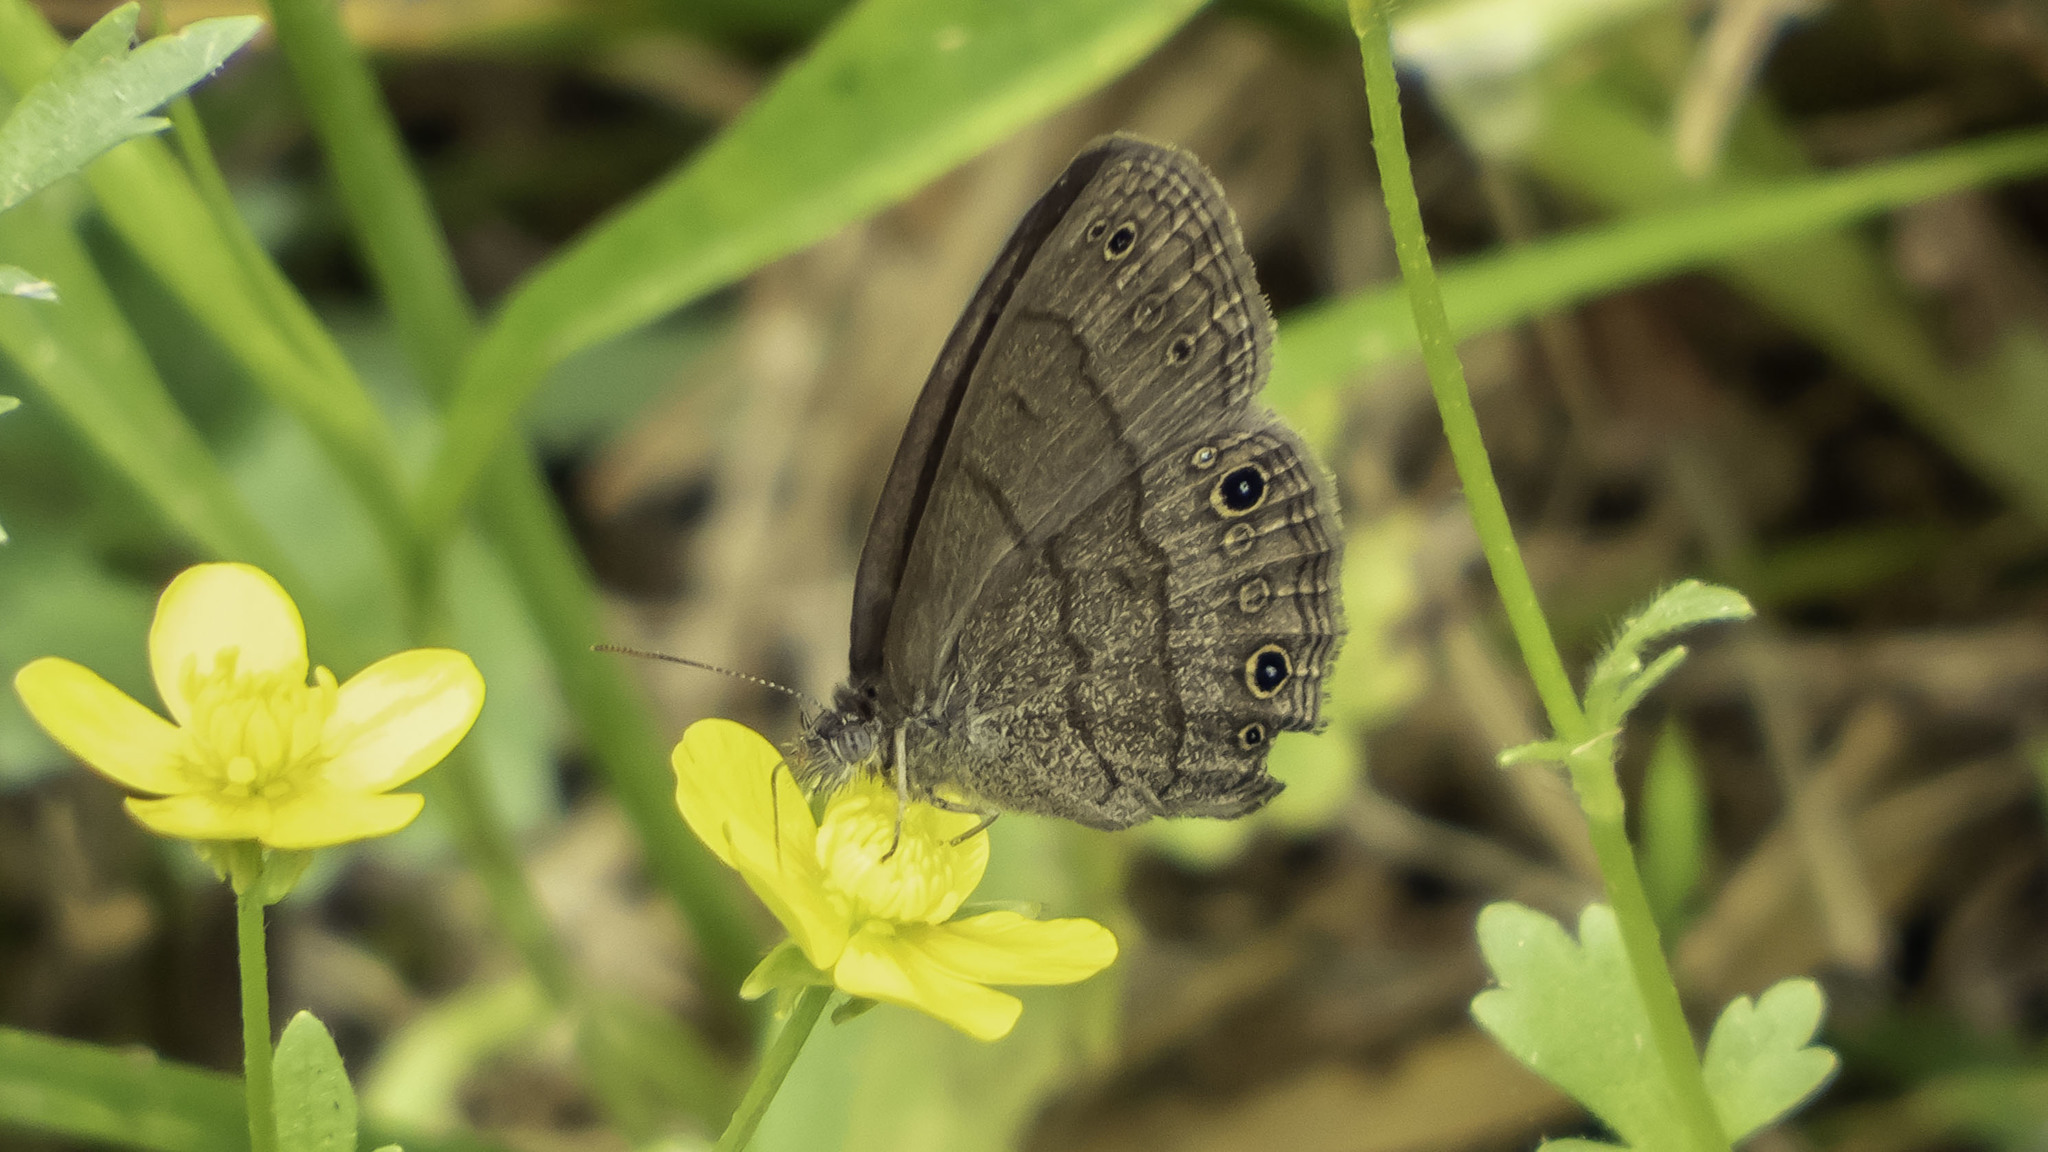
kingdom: Animalia
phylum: Arthropoda
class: Insecta
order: Lepidoptera
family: Nymphalidae
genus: Hermeuptychia
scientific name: Hermeuptychia hermes
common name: Hermes satyr
